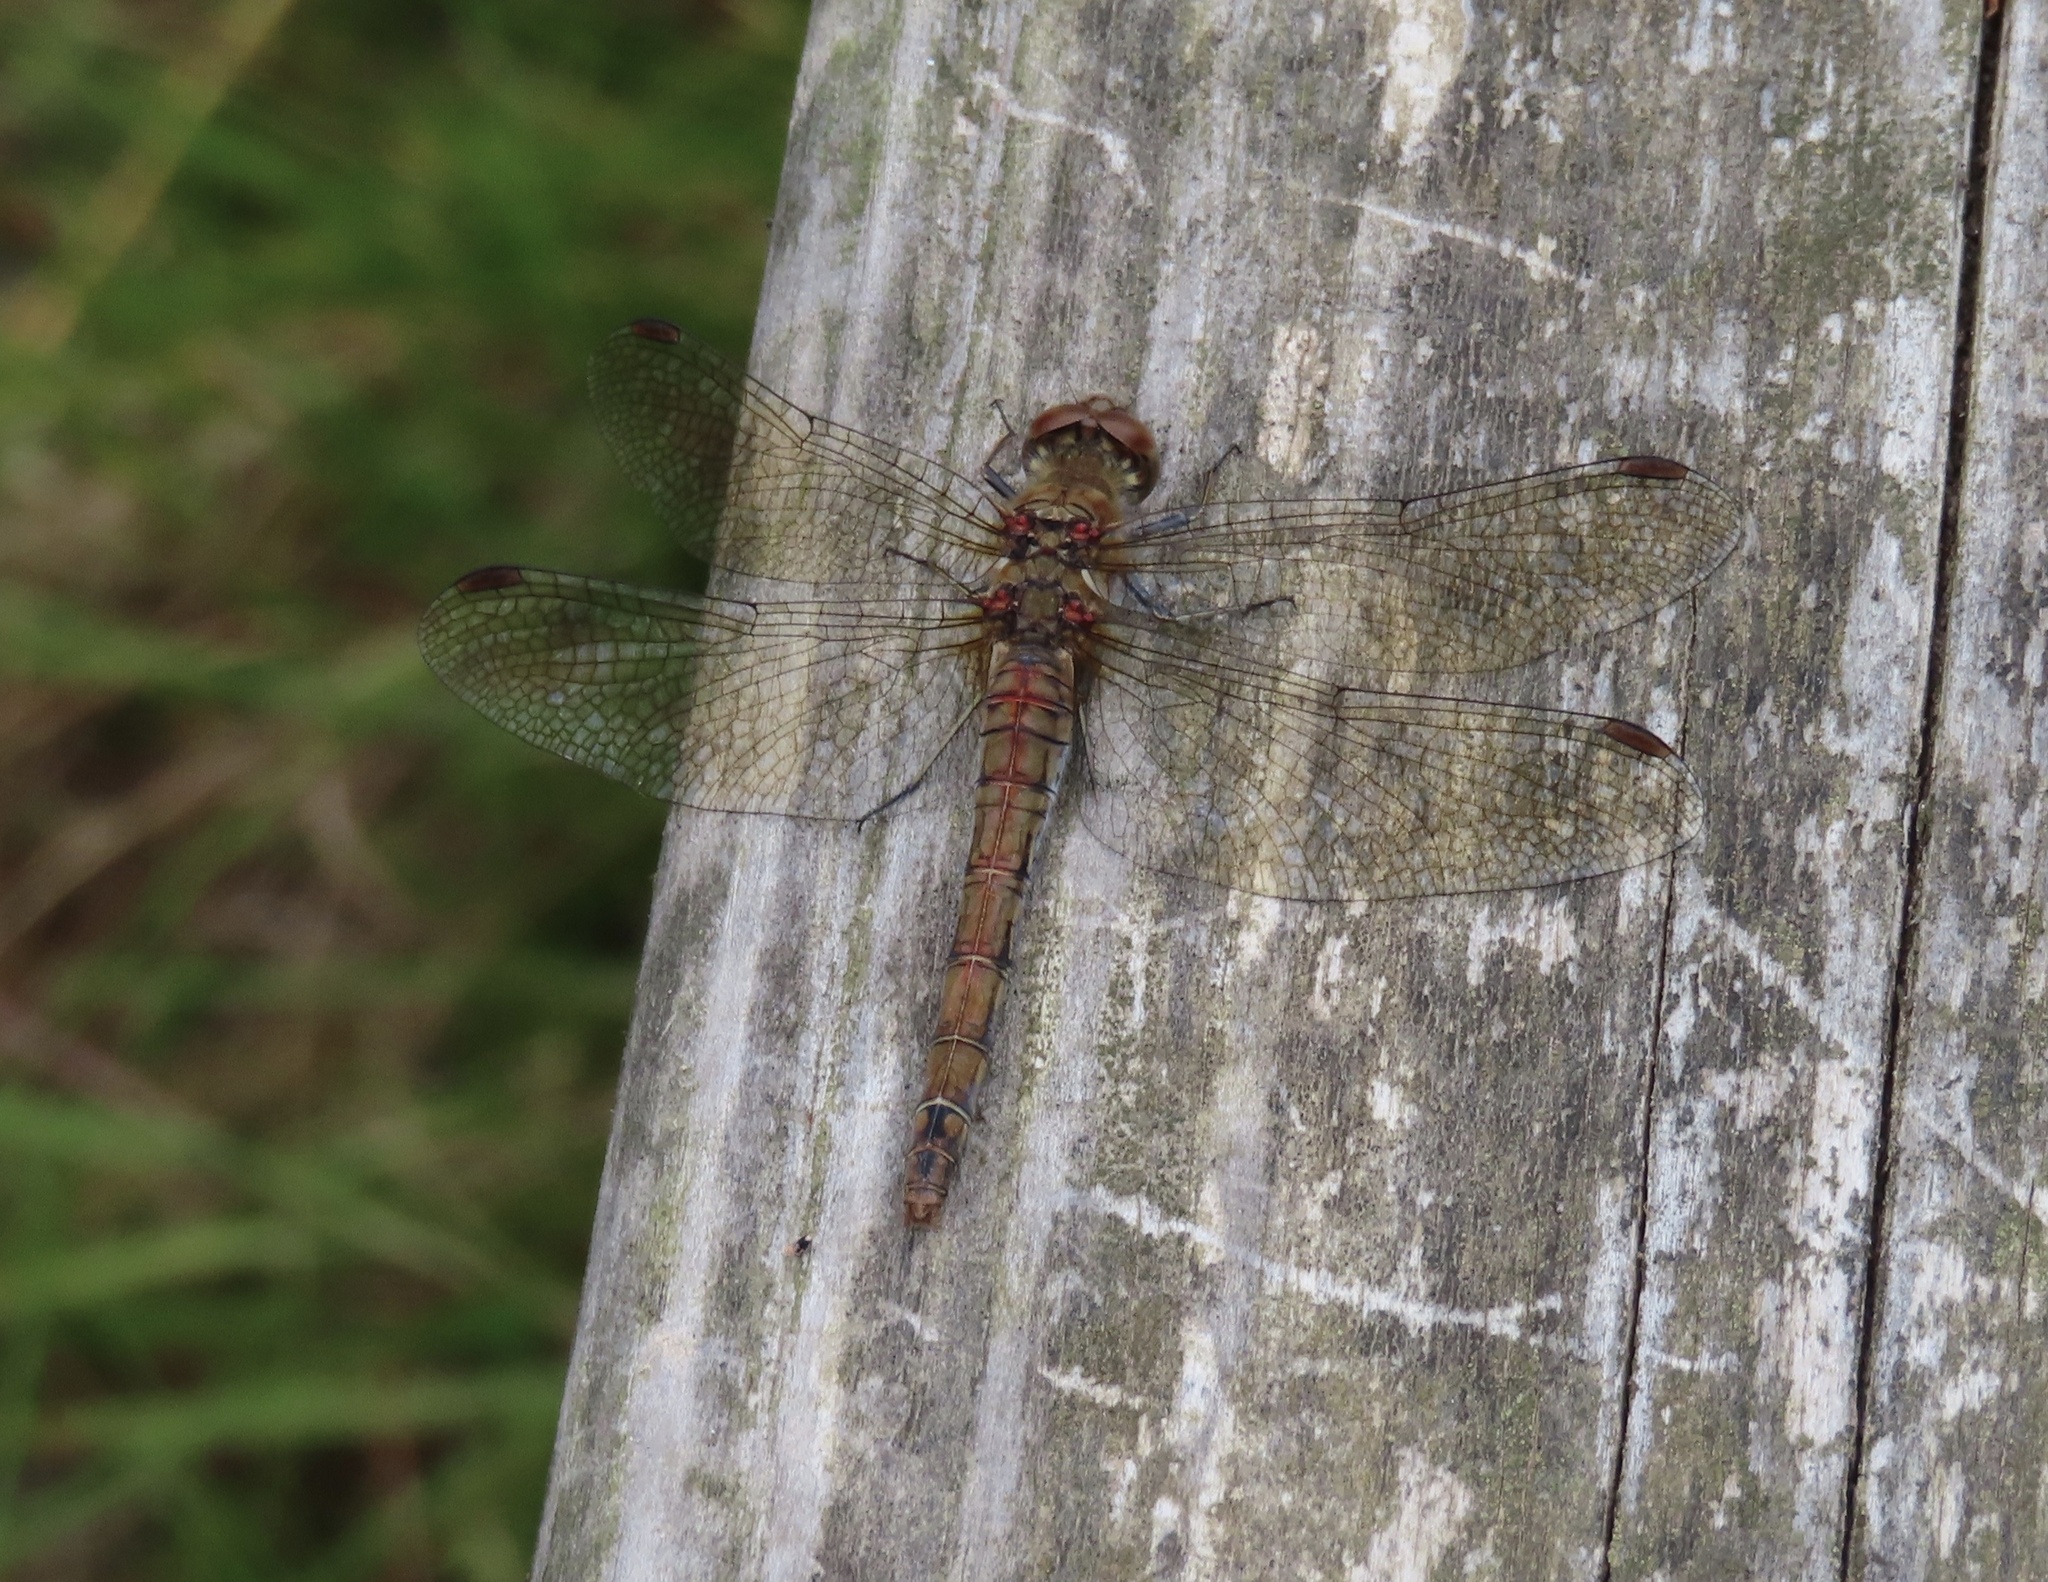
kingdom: Animalia
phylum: Arthropoda
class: Insecta
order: Odonata
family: Libellulidae
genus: Sympetrum
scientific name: Sympetrum striolatum
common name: Common darter
